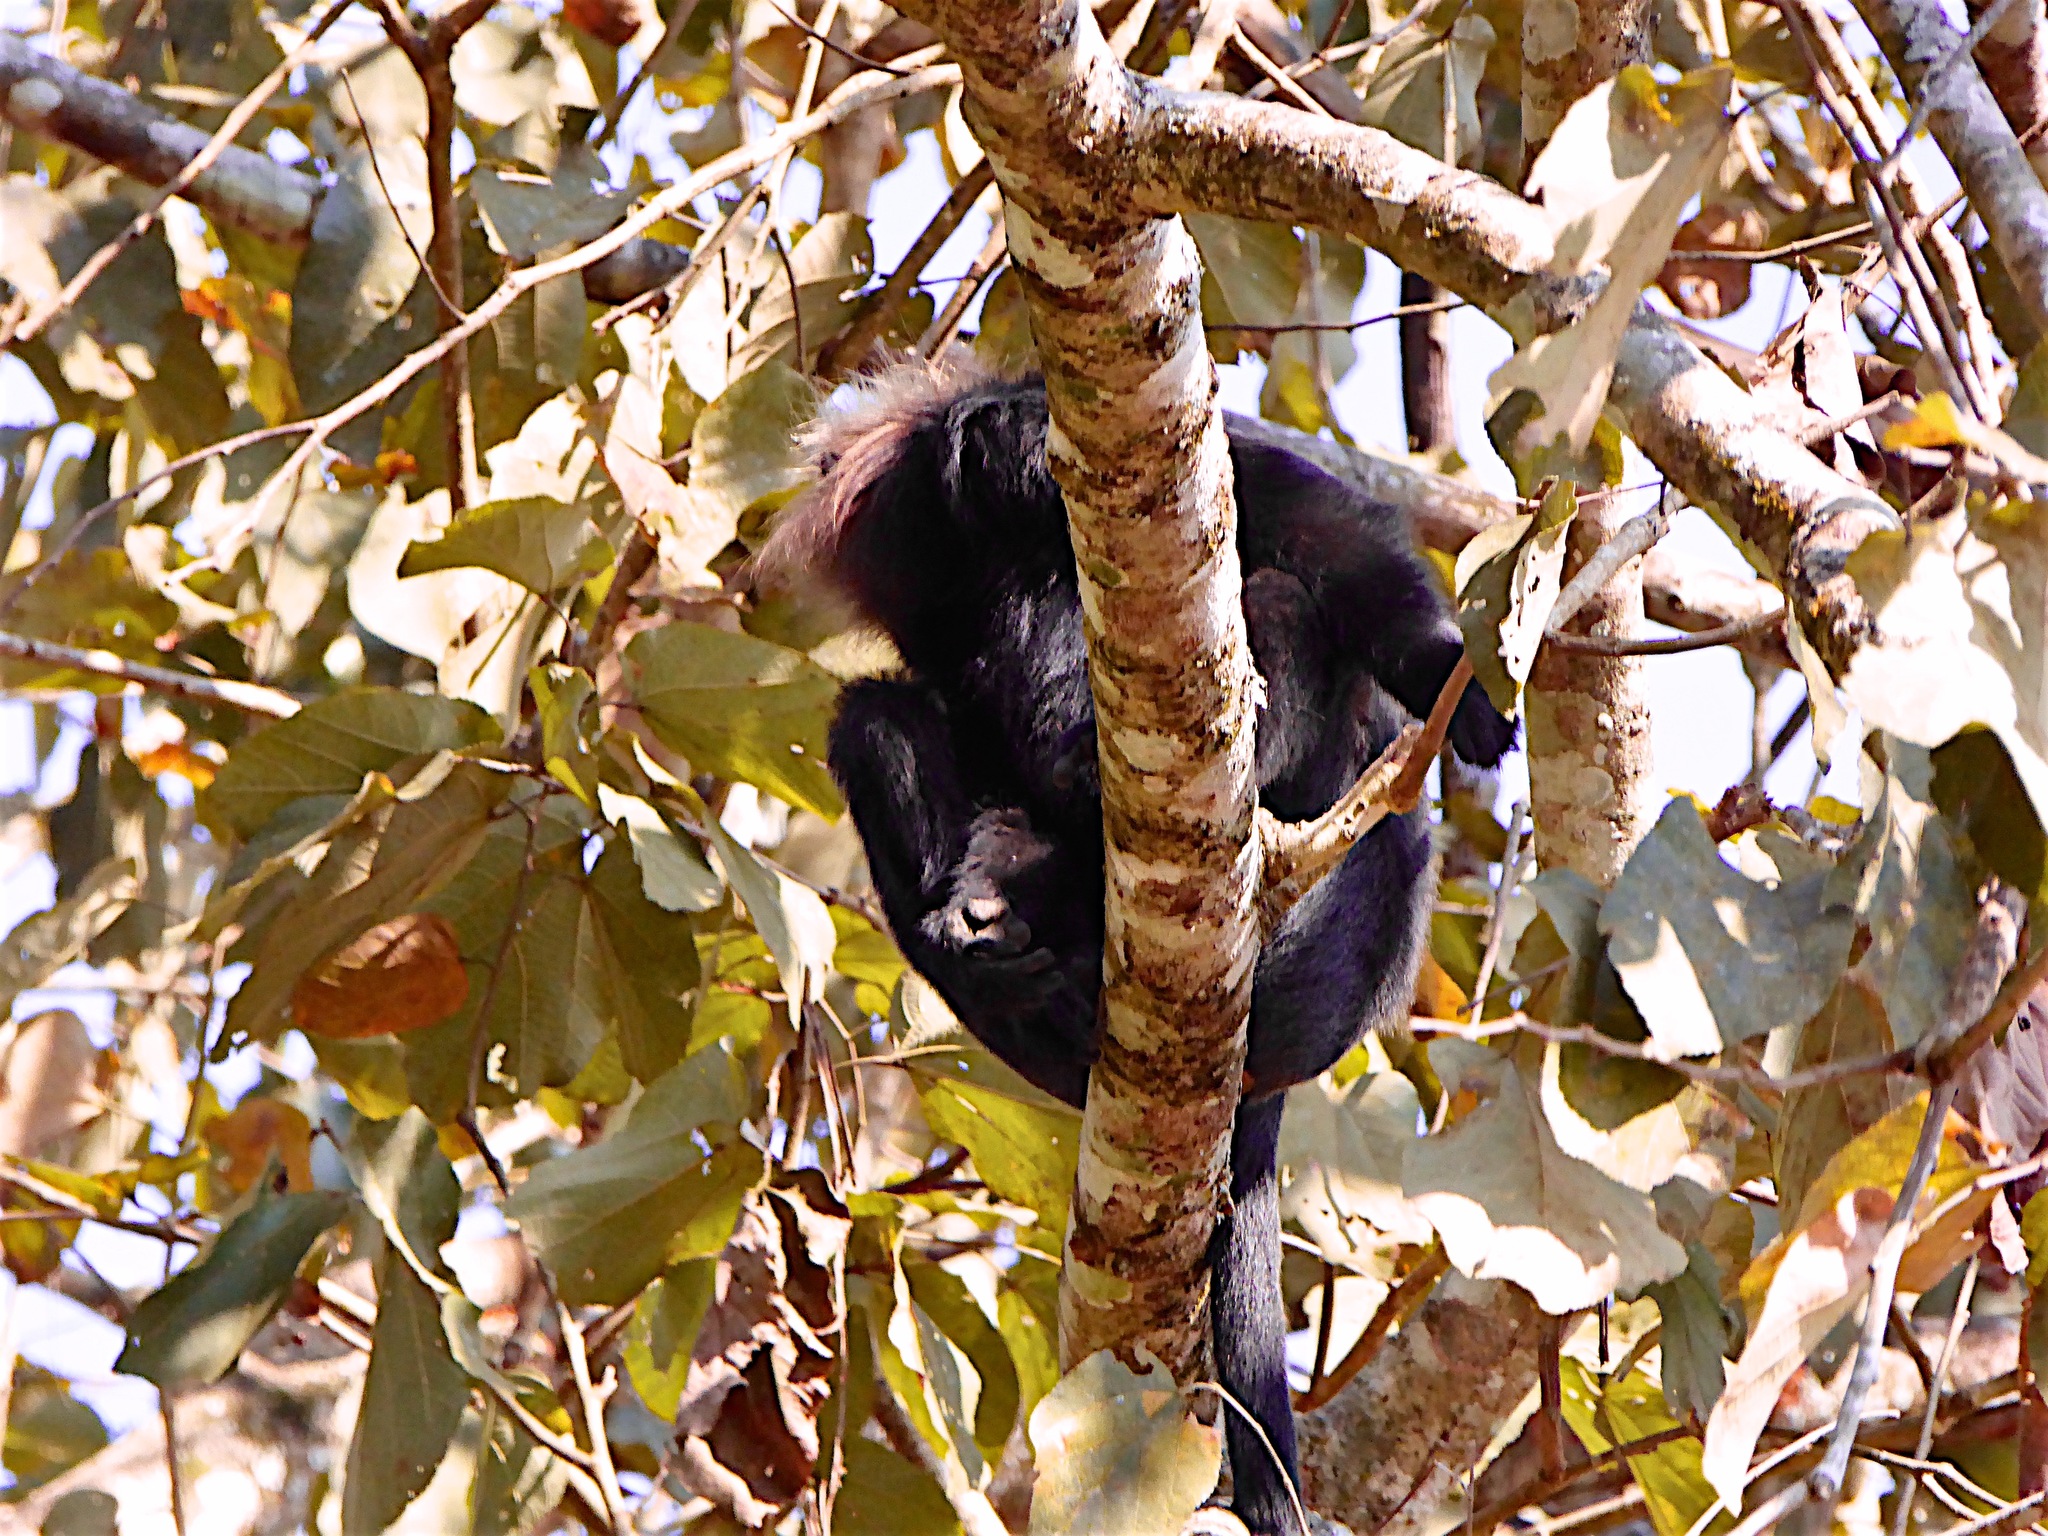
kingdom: Animalia
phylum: Chordata
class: Mammalia
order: Primates
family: Cercopithecidae
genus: Semnopithecus
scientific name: Semnopithecus johnii
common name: Nilgiri langur
